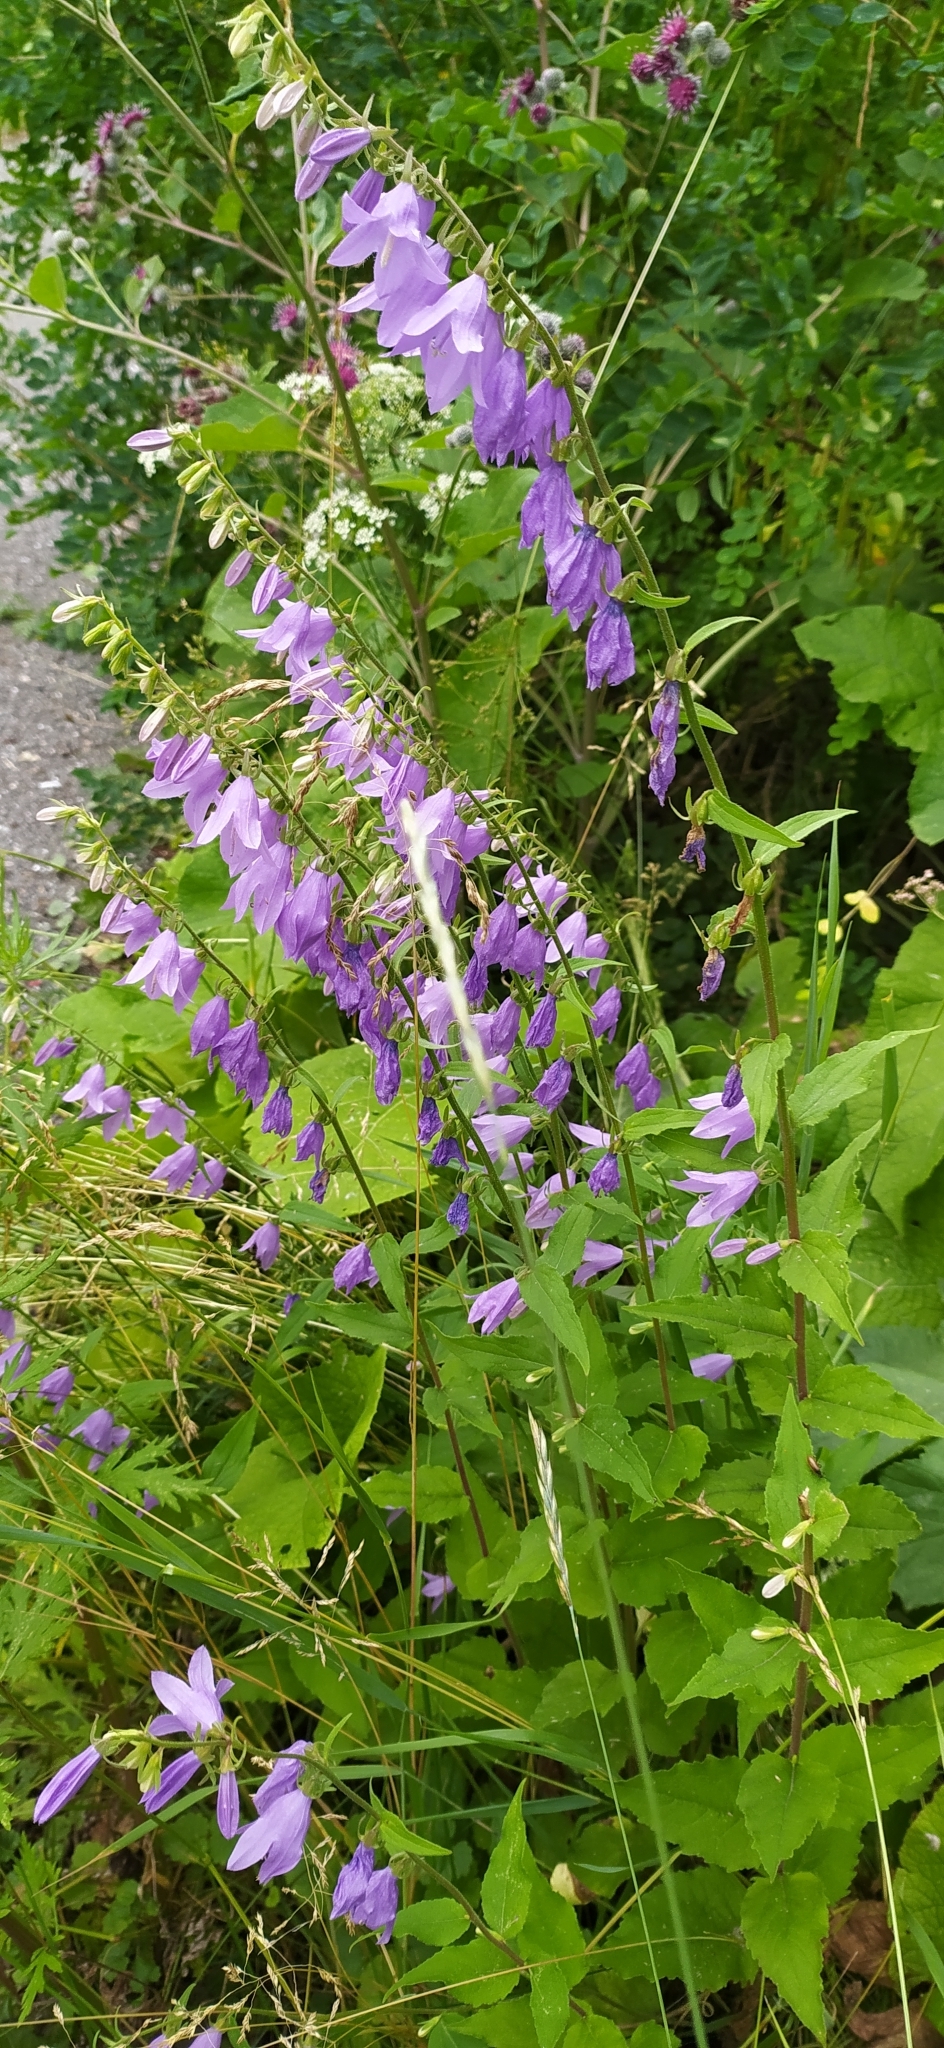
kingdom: Plantae
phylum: Tracheophyta
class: Magnoliopsida
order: Asterales
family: Campanulaceae
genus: Campanula
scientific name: Campanula rapunculoides
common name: Creeping bellflower
